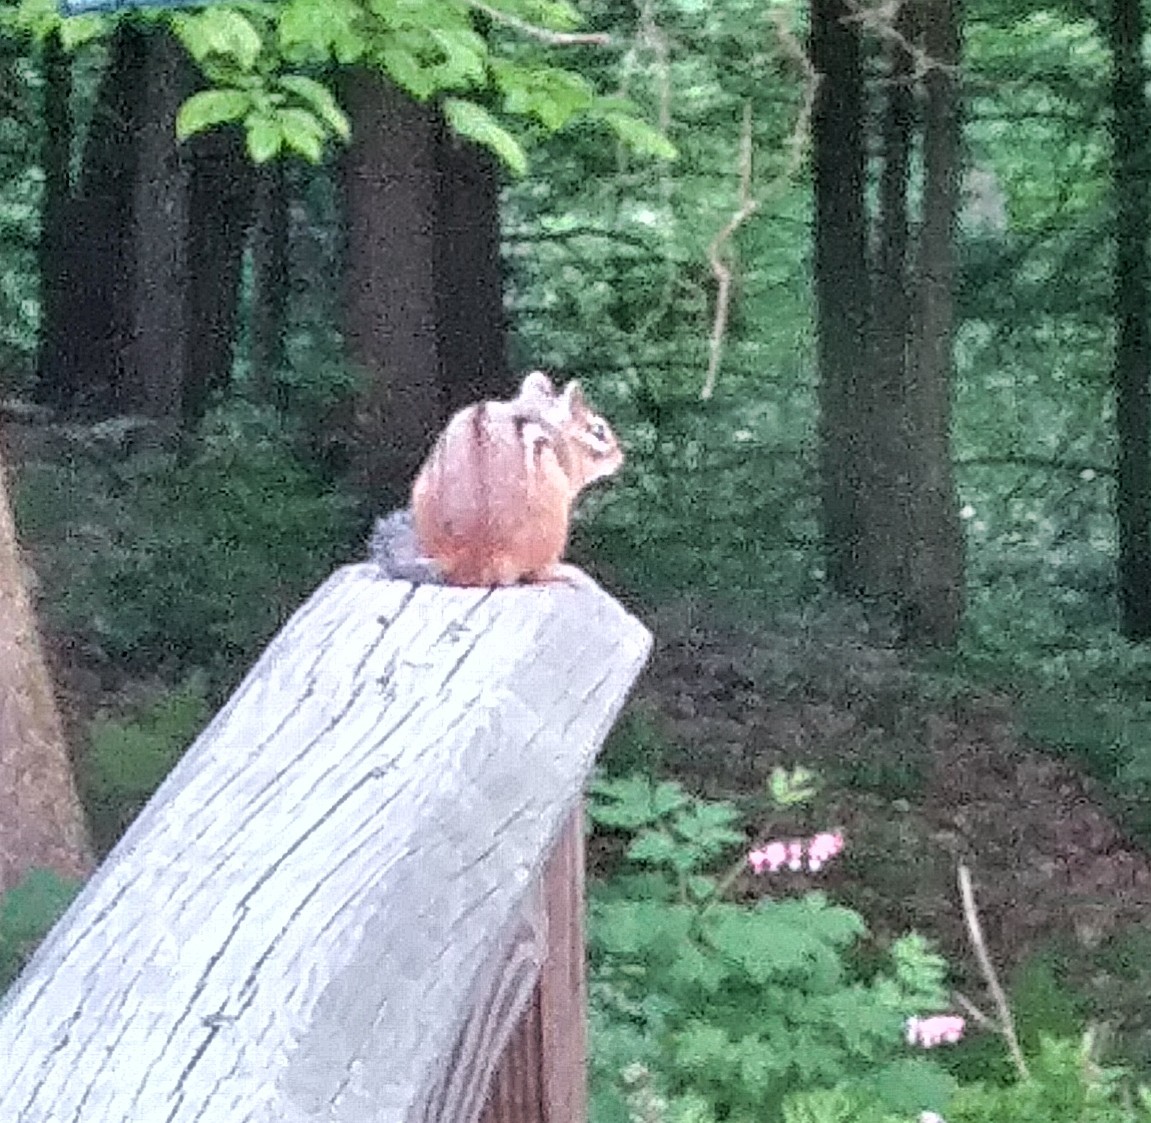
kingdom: Animalia
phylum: Chordata
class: Mammalia
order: Rodentia
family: Sciuridae
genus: Tamias
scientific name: Tamias striatus
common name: Eastern chipmunk
